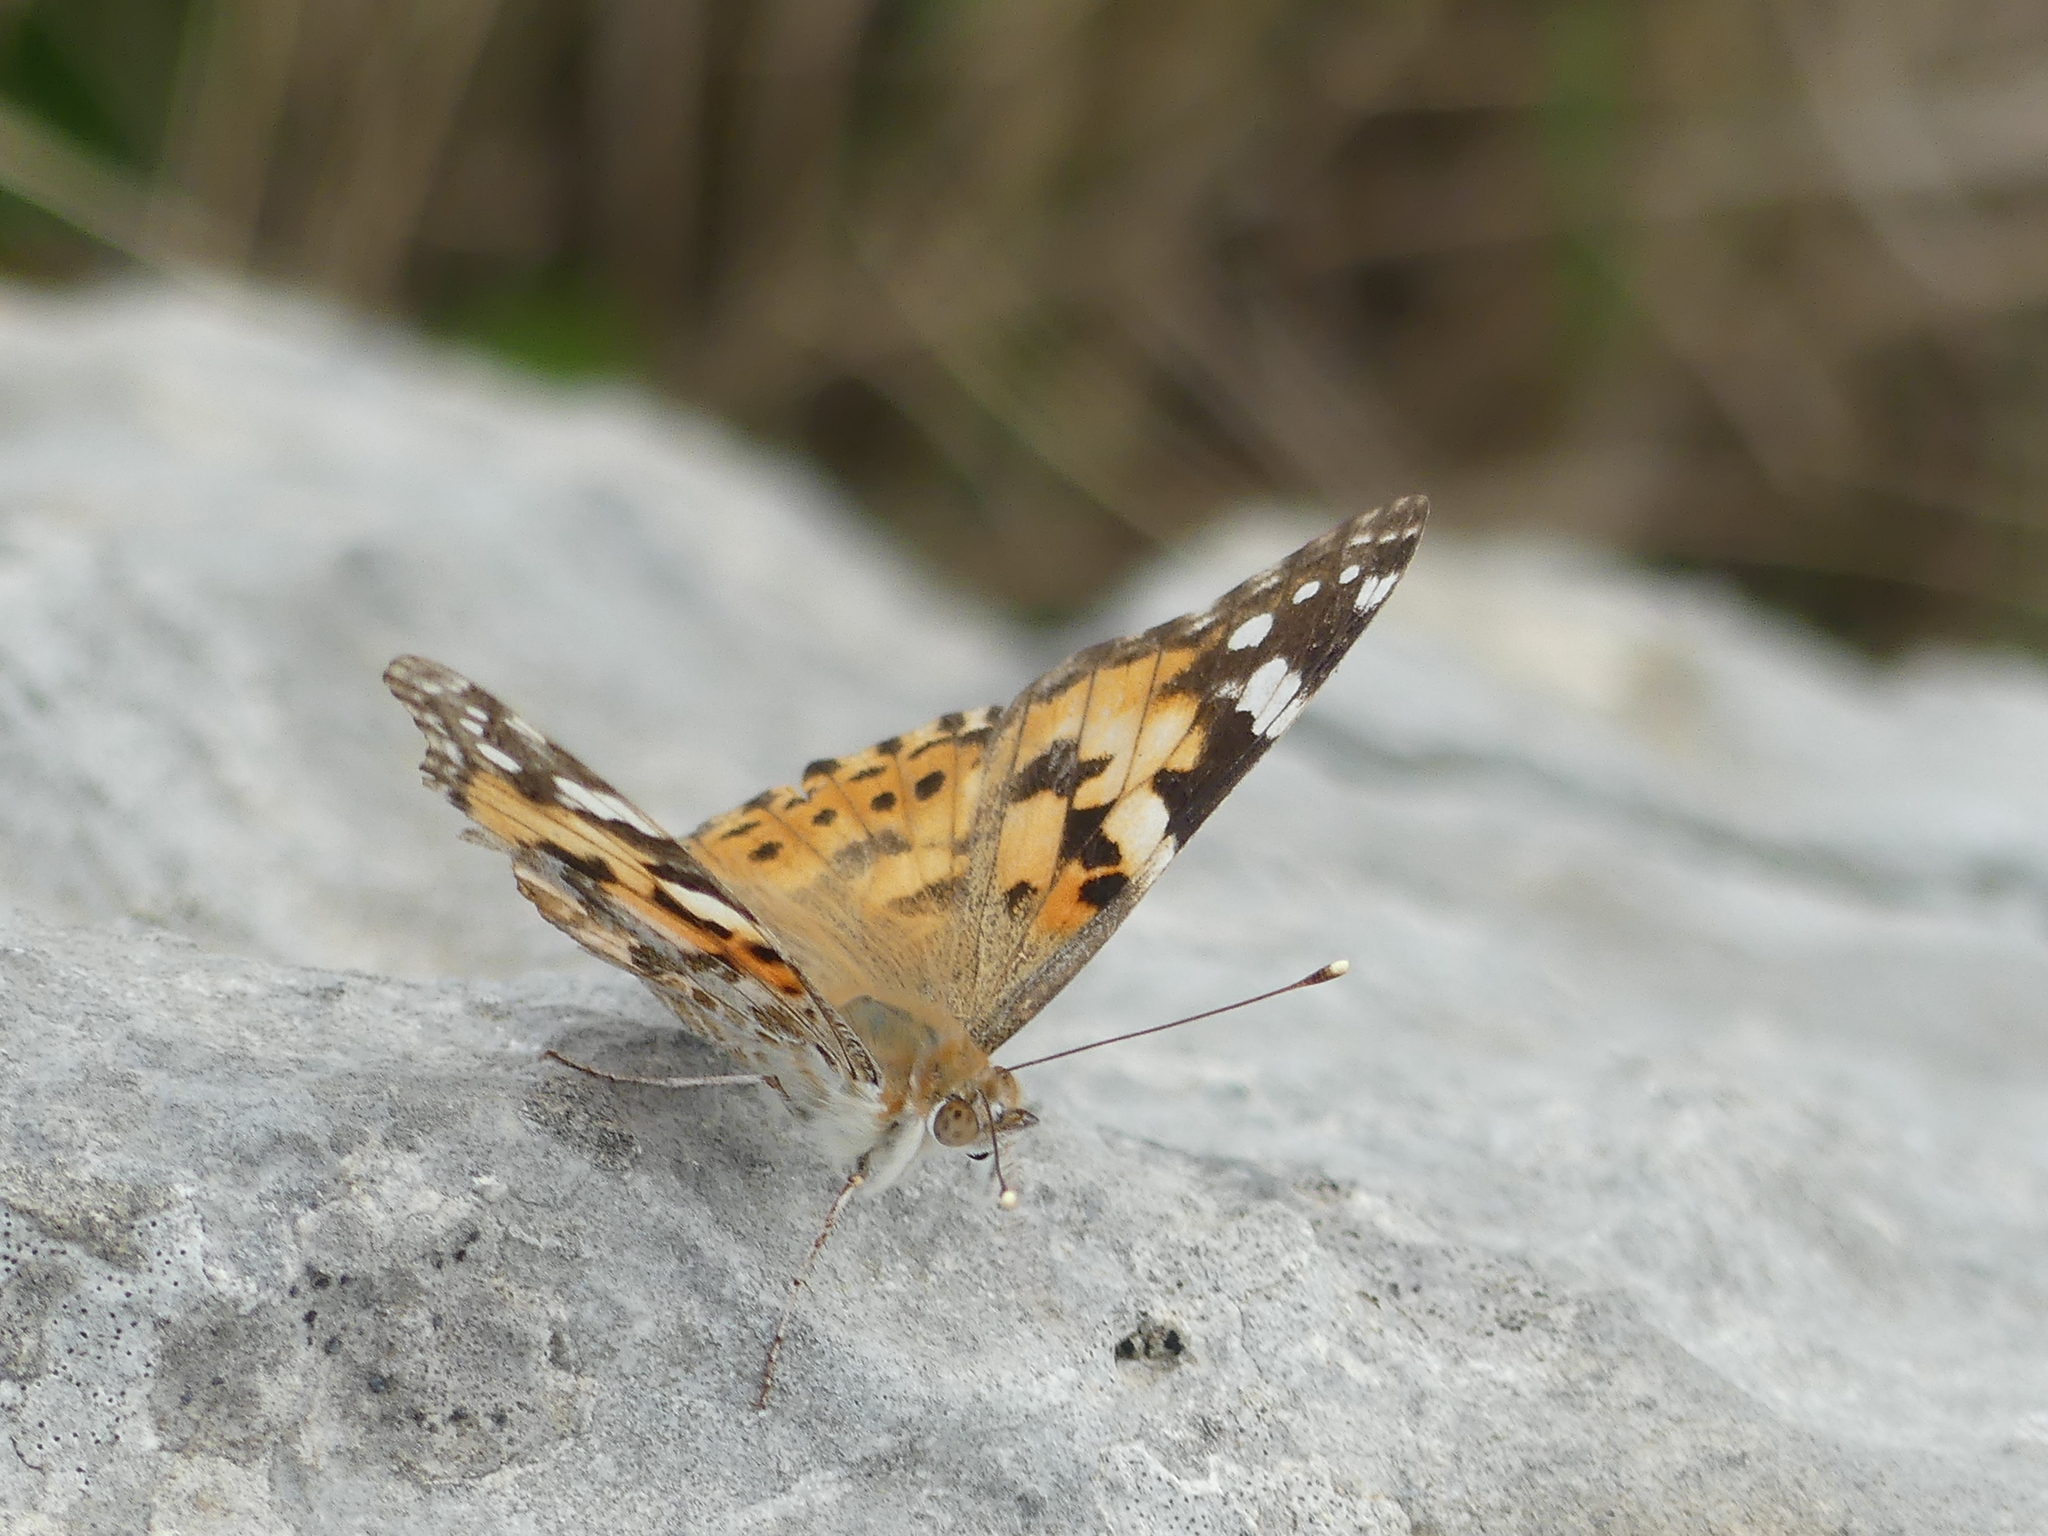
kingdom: Animalia
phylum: Arthropoda
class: Insecta
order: Lepidoptera
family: Nymphalidae
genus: Vanessa
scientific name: Vanessa cardui
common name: Painted lady
